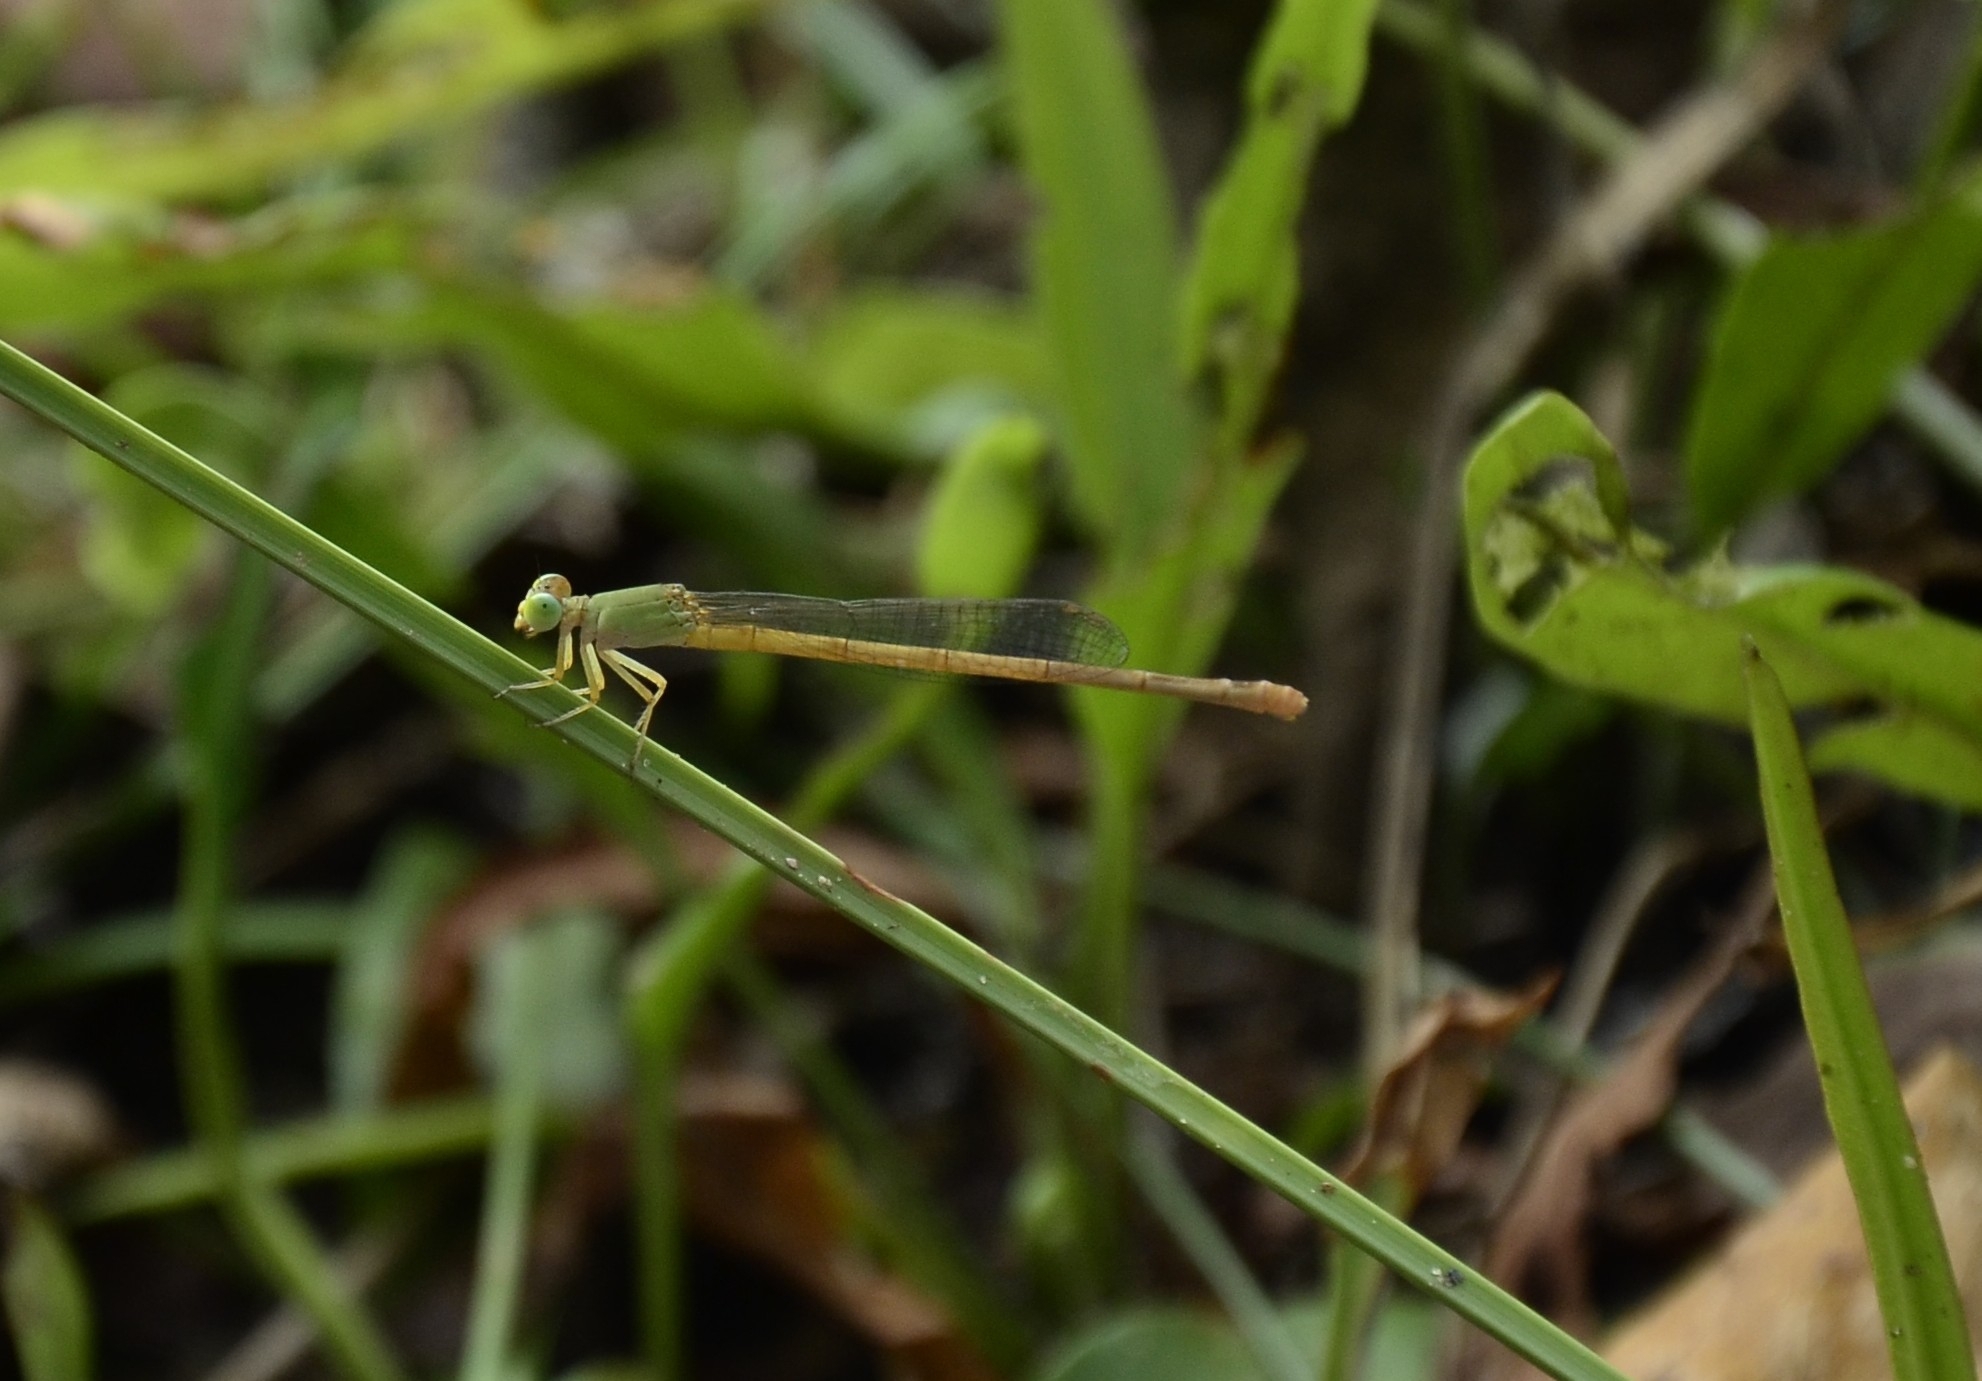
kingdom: Animalia
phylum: Arthropoda
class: Insecta
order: Odonata
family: Coenagrionidae
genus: Ceriagrion
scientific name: Ceriagrion coromandelianum
